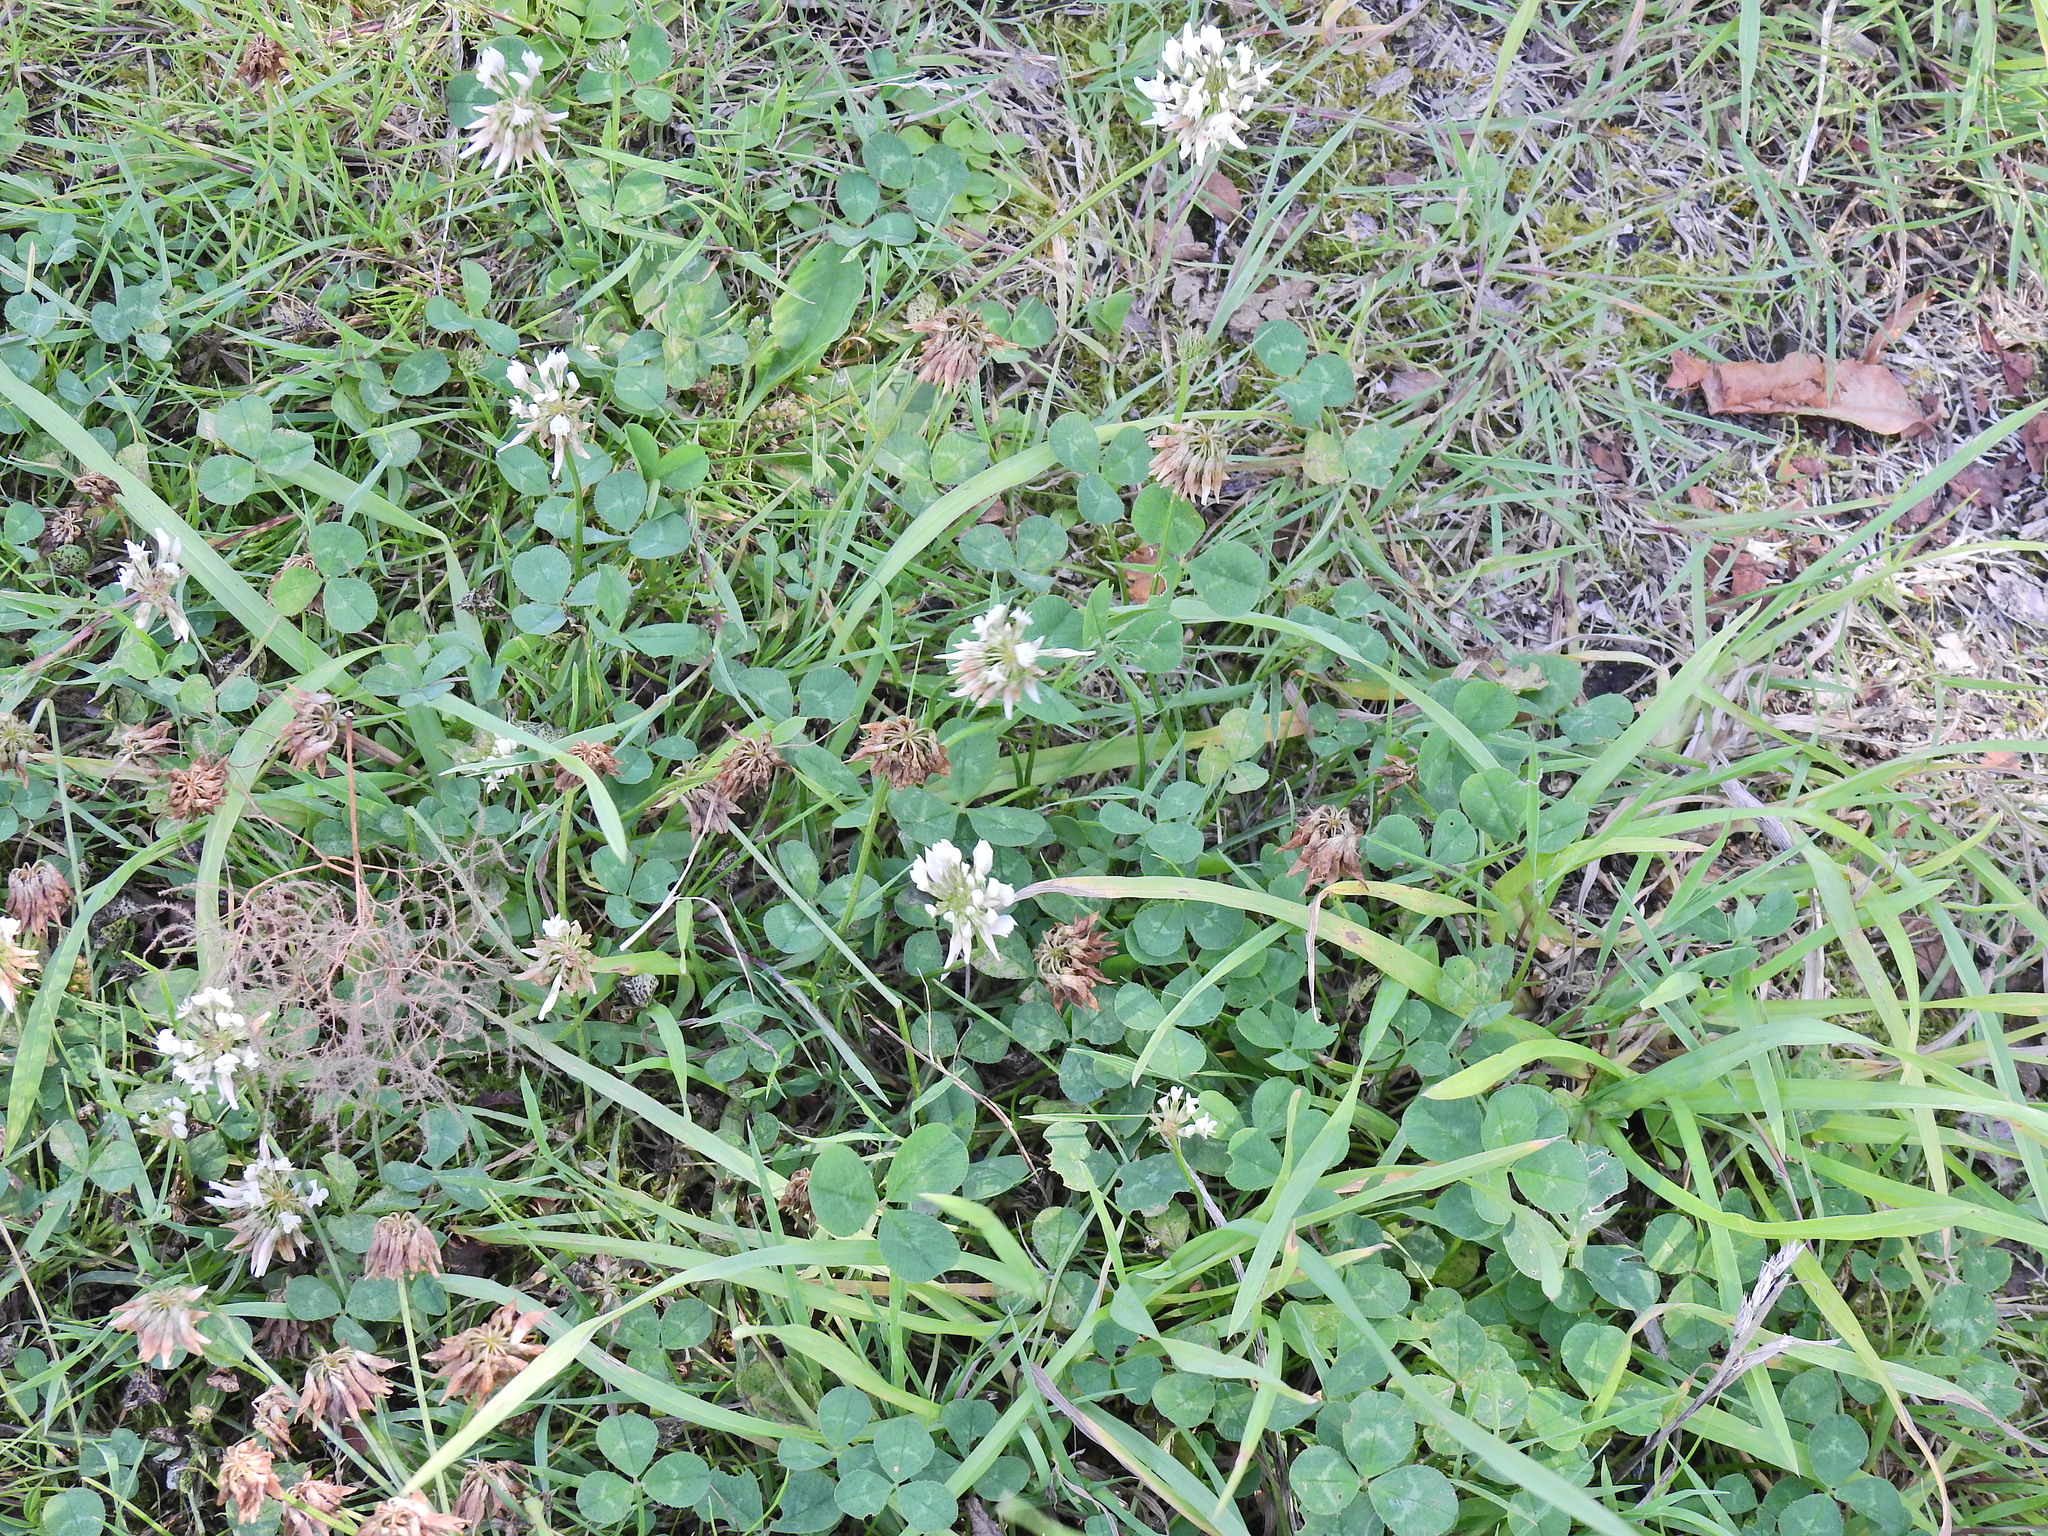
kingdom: Plantae
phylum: Tracheophyta
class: Magnoliopsida
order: Fabales
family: Fabaceae
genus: Trifolium
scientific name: Trifolium repens
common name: White clover
